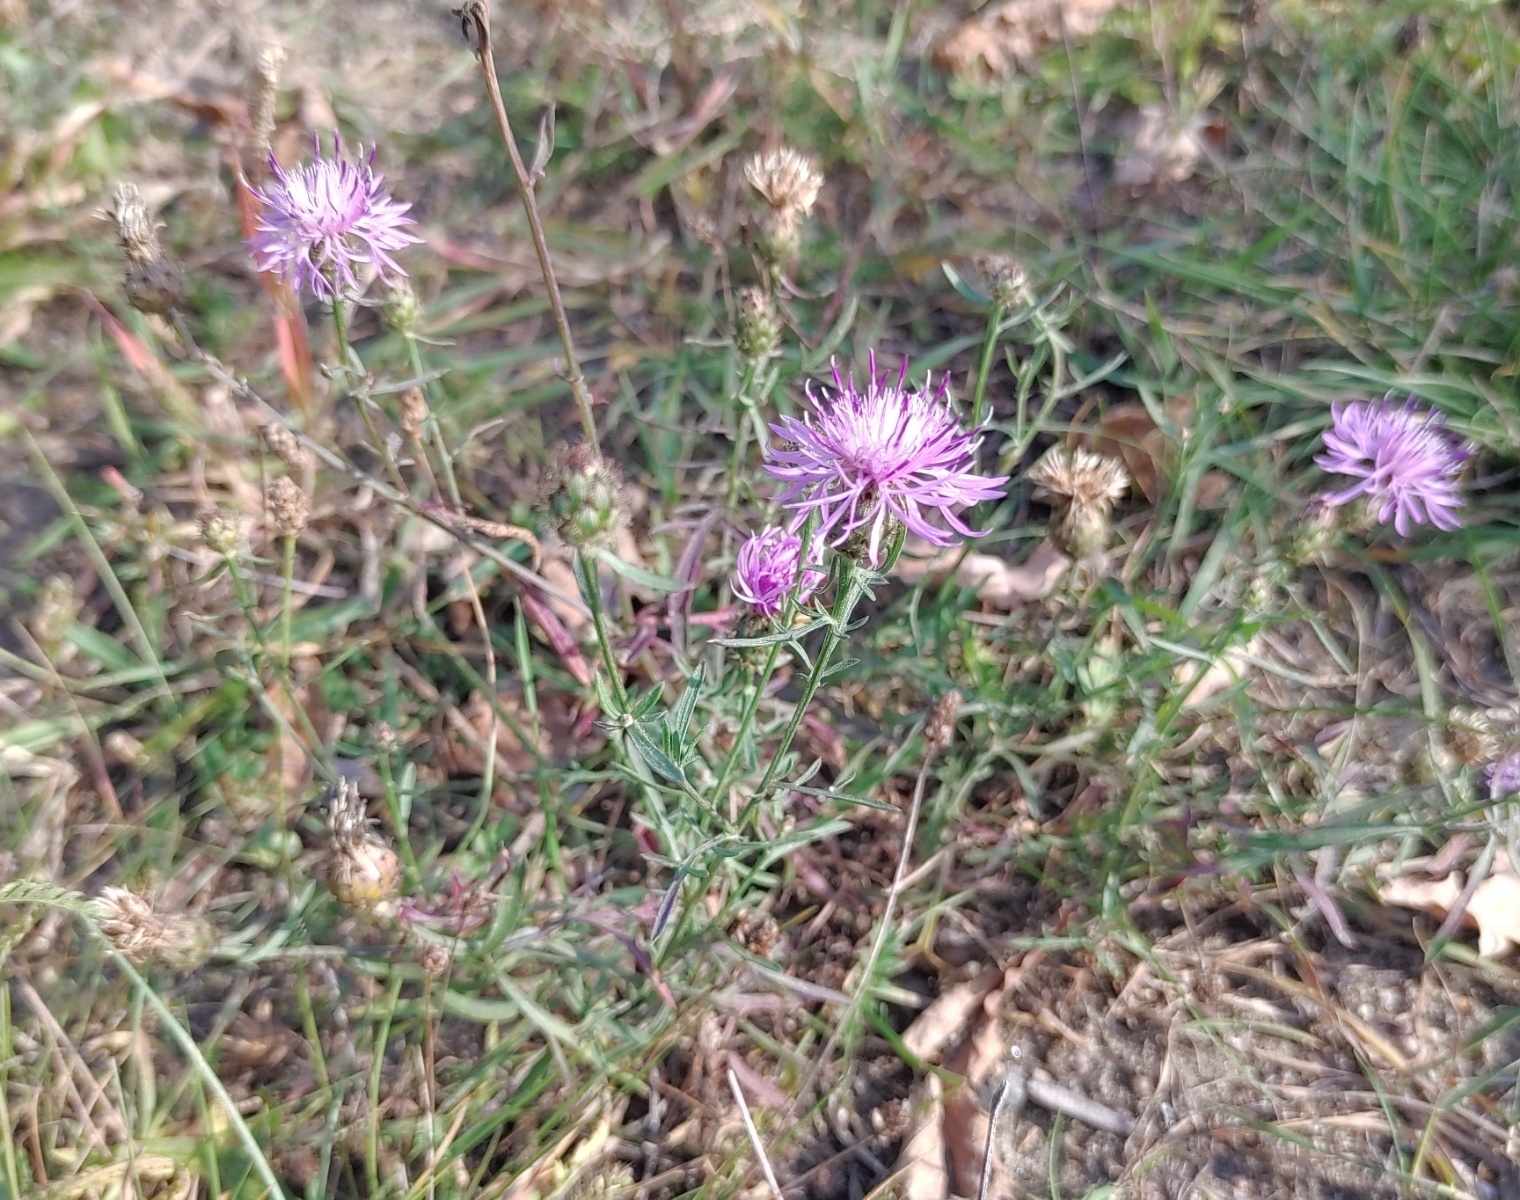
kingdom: Plantae
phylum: Tracheophyta
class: Magnoliopsida
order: Asterales
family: Asteraceae
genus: Centaurea
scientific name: Centaurea stoebe
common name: Spotted knapweed
